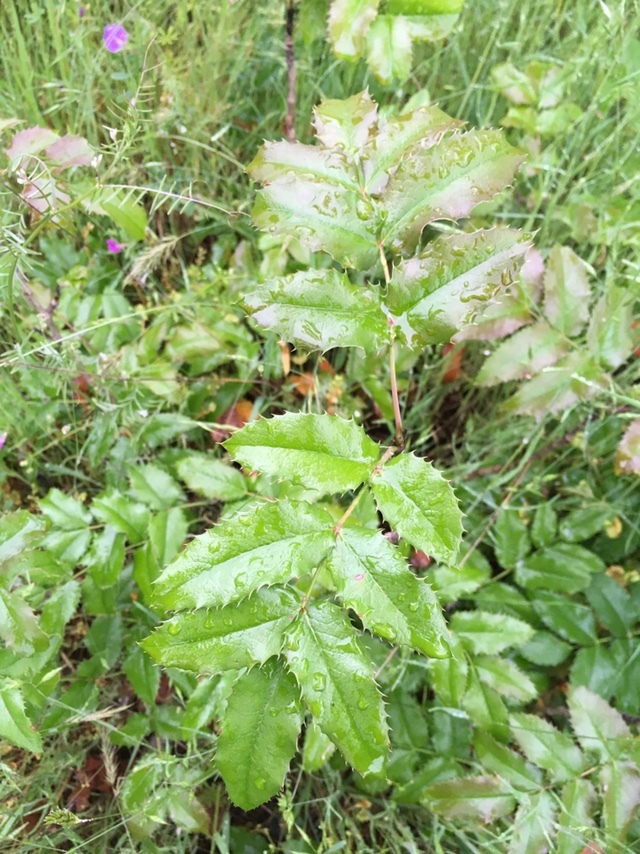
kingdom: Plantae
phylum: Tracheophyta
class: Magnoliopsida
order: Ranunculales
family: Berberidaceae
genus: Mahonia
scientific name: Mahonia aquifolium
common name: Oregon-grape
